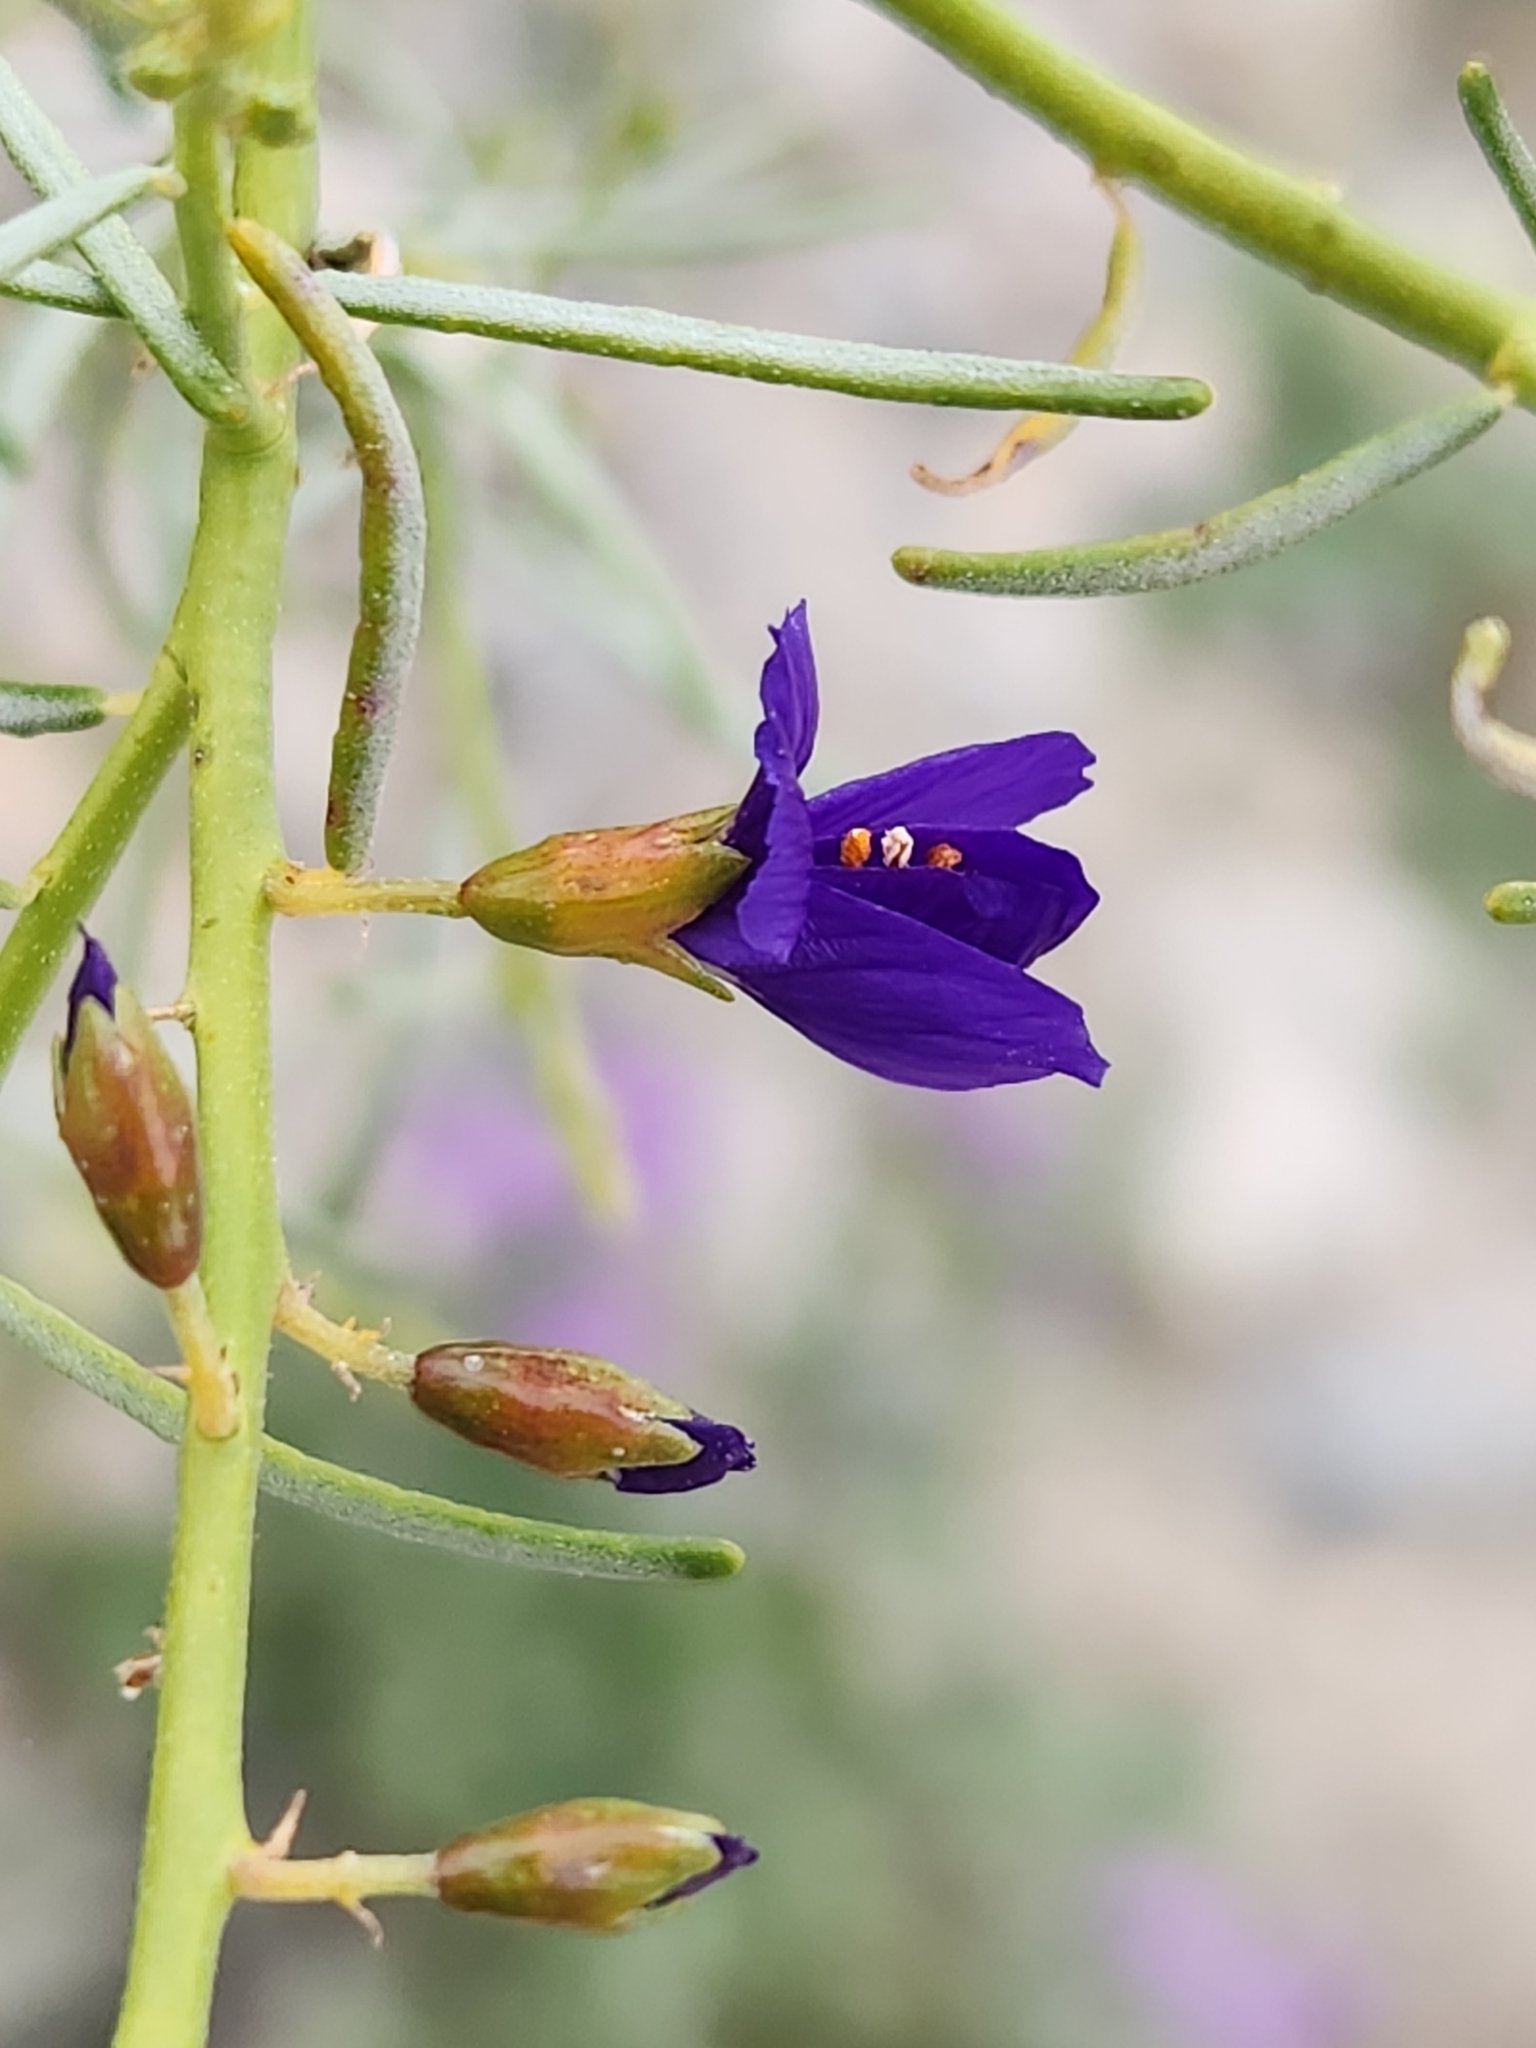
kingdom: Plantae
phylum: Tracheophyta
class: Magnoliopsida
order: Fabales
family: Fabaceae
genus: Psorothamnus
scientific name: Psorothamnus schottii
